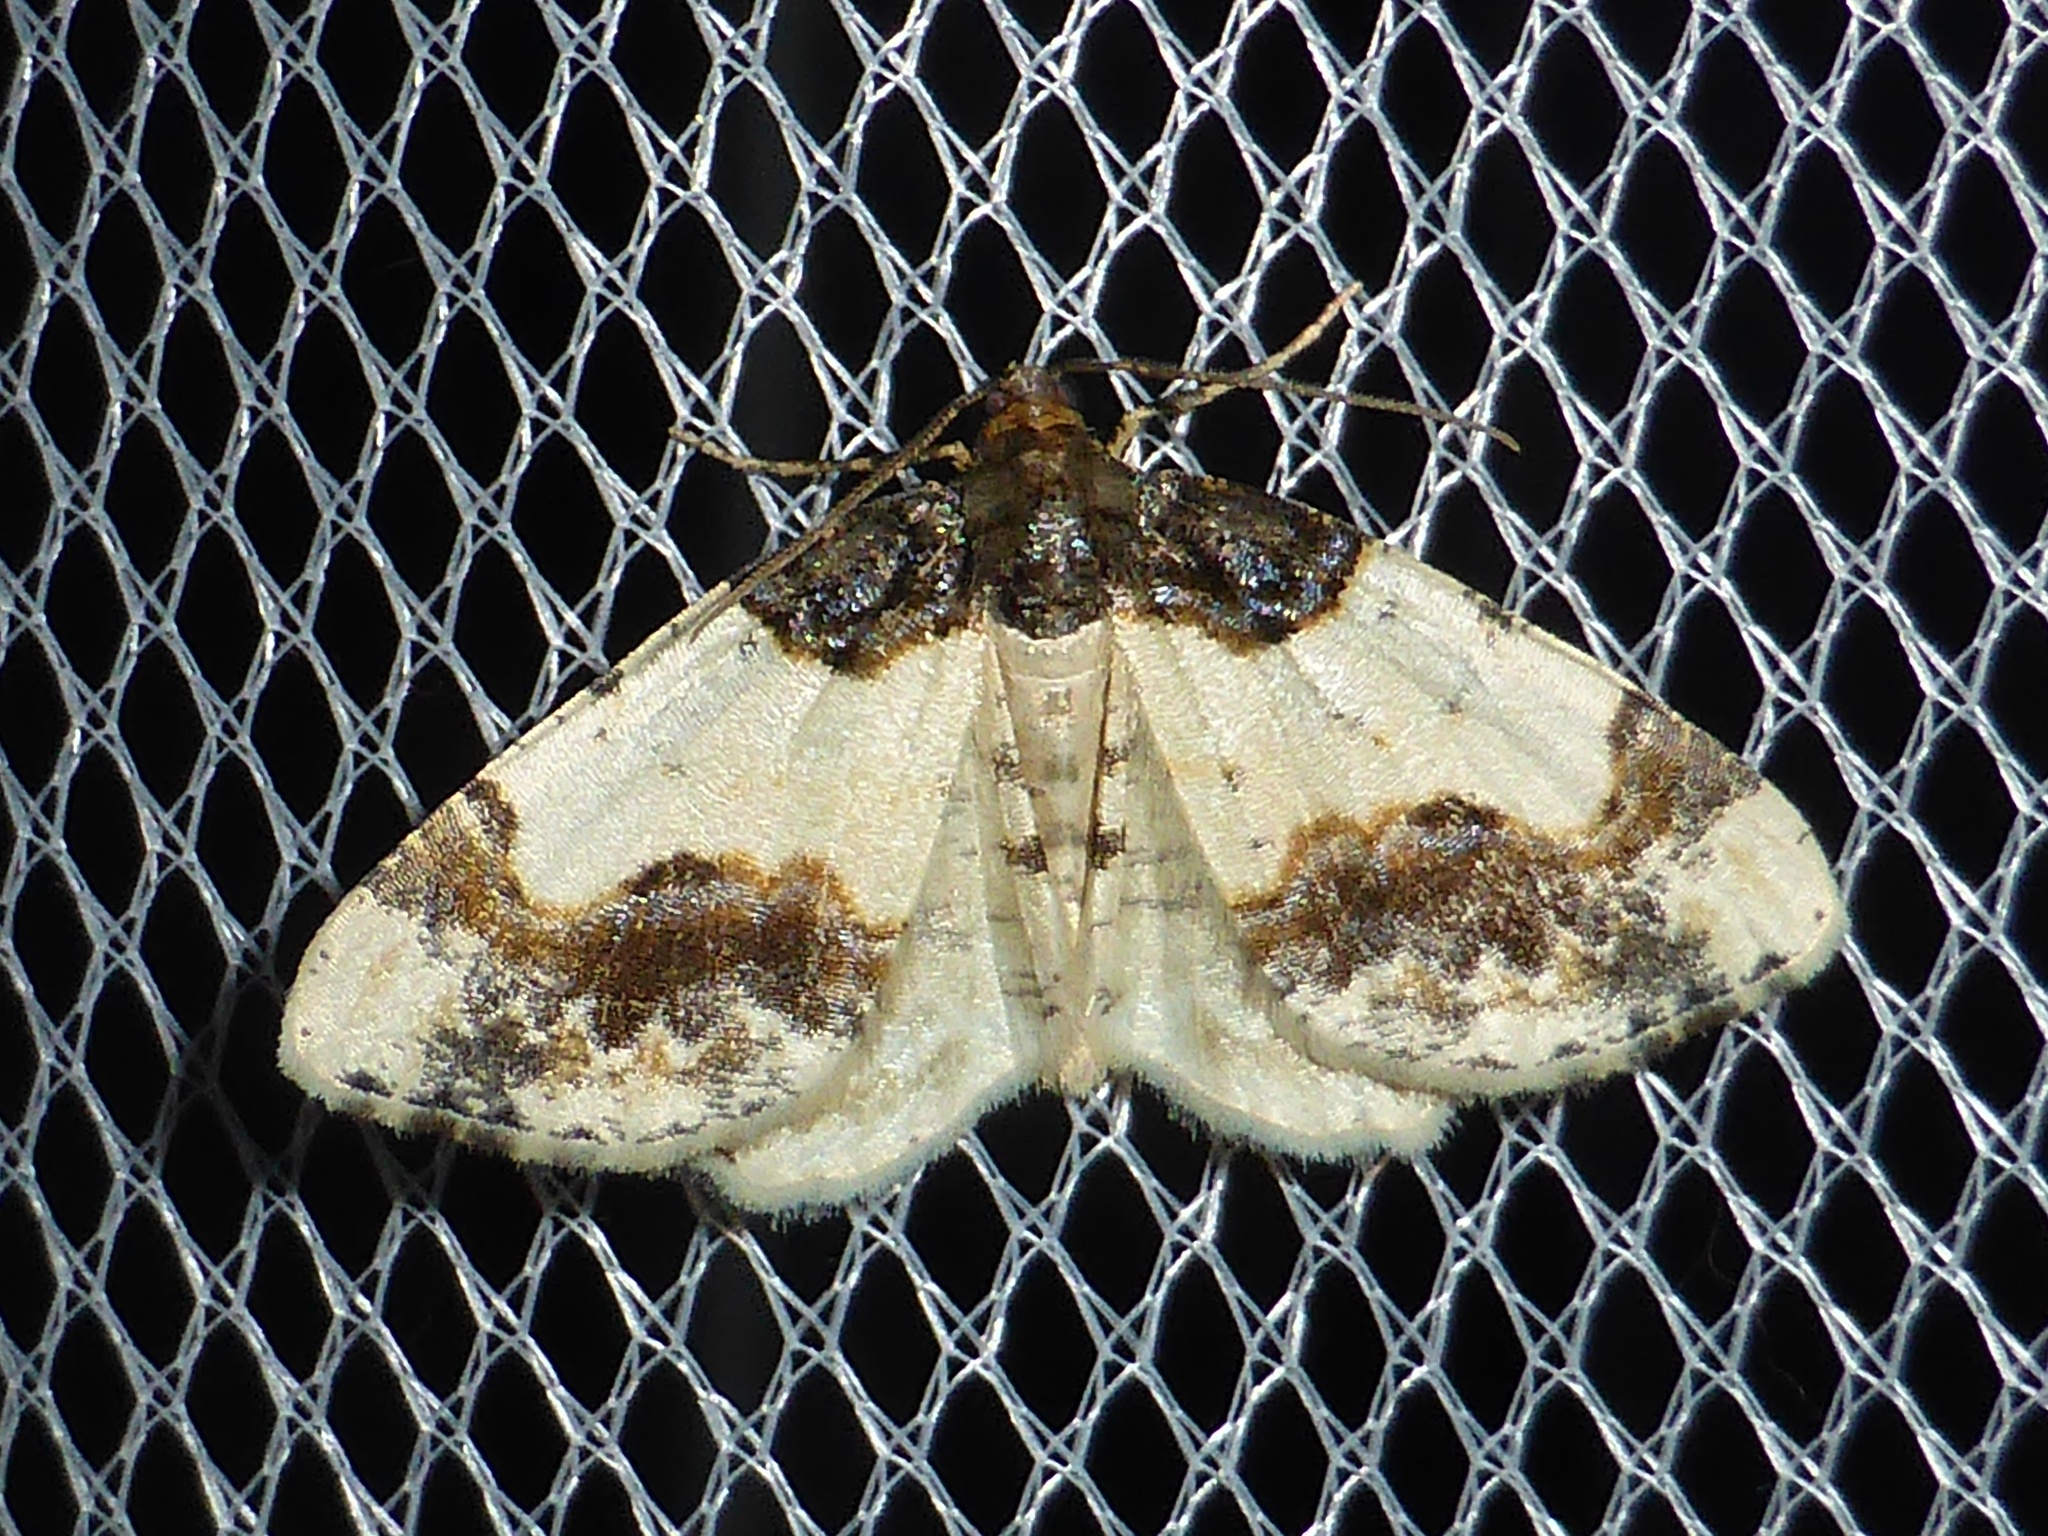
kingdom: Animalia
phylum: Arthropoda
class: Insecta
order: Lepidoptera
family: Geometridae
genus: Ligdia
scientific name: Ligdia adustata
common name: Scorched carpet
